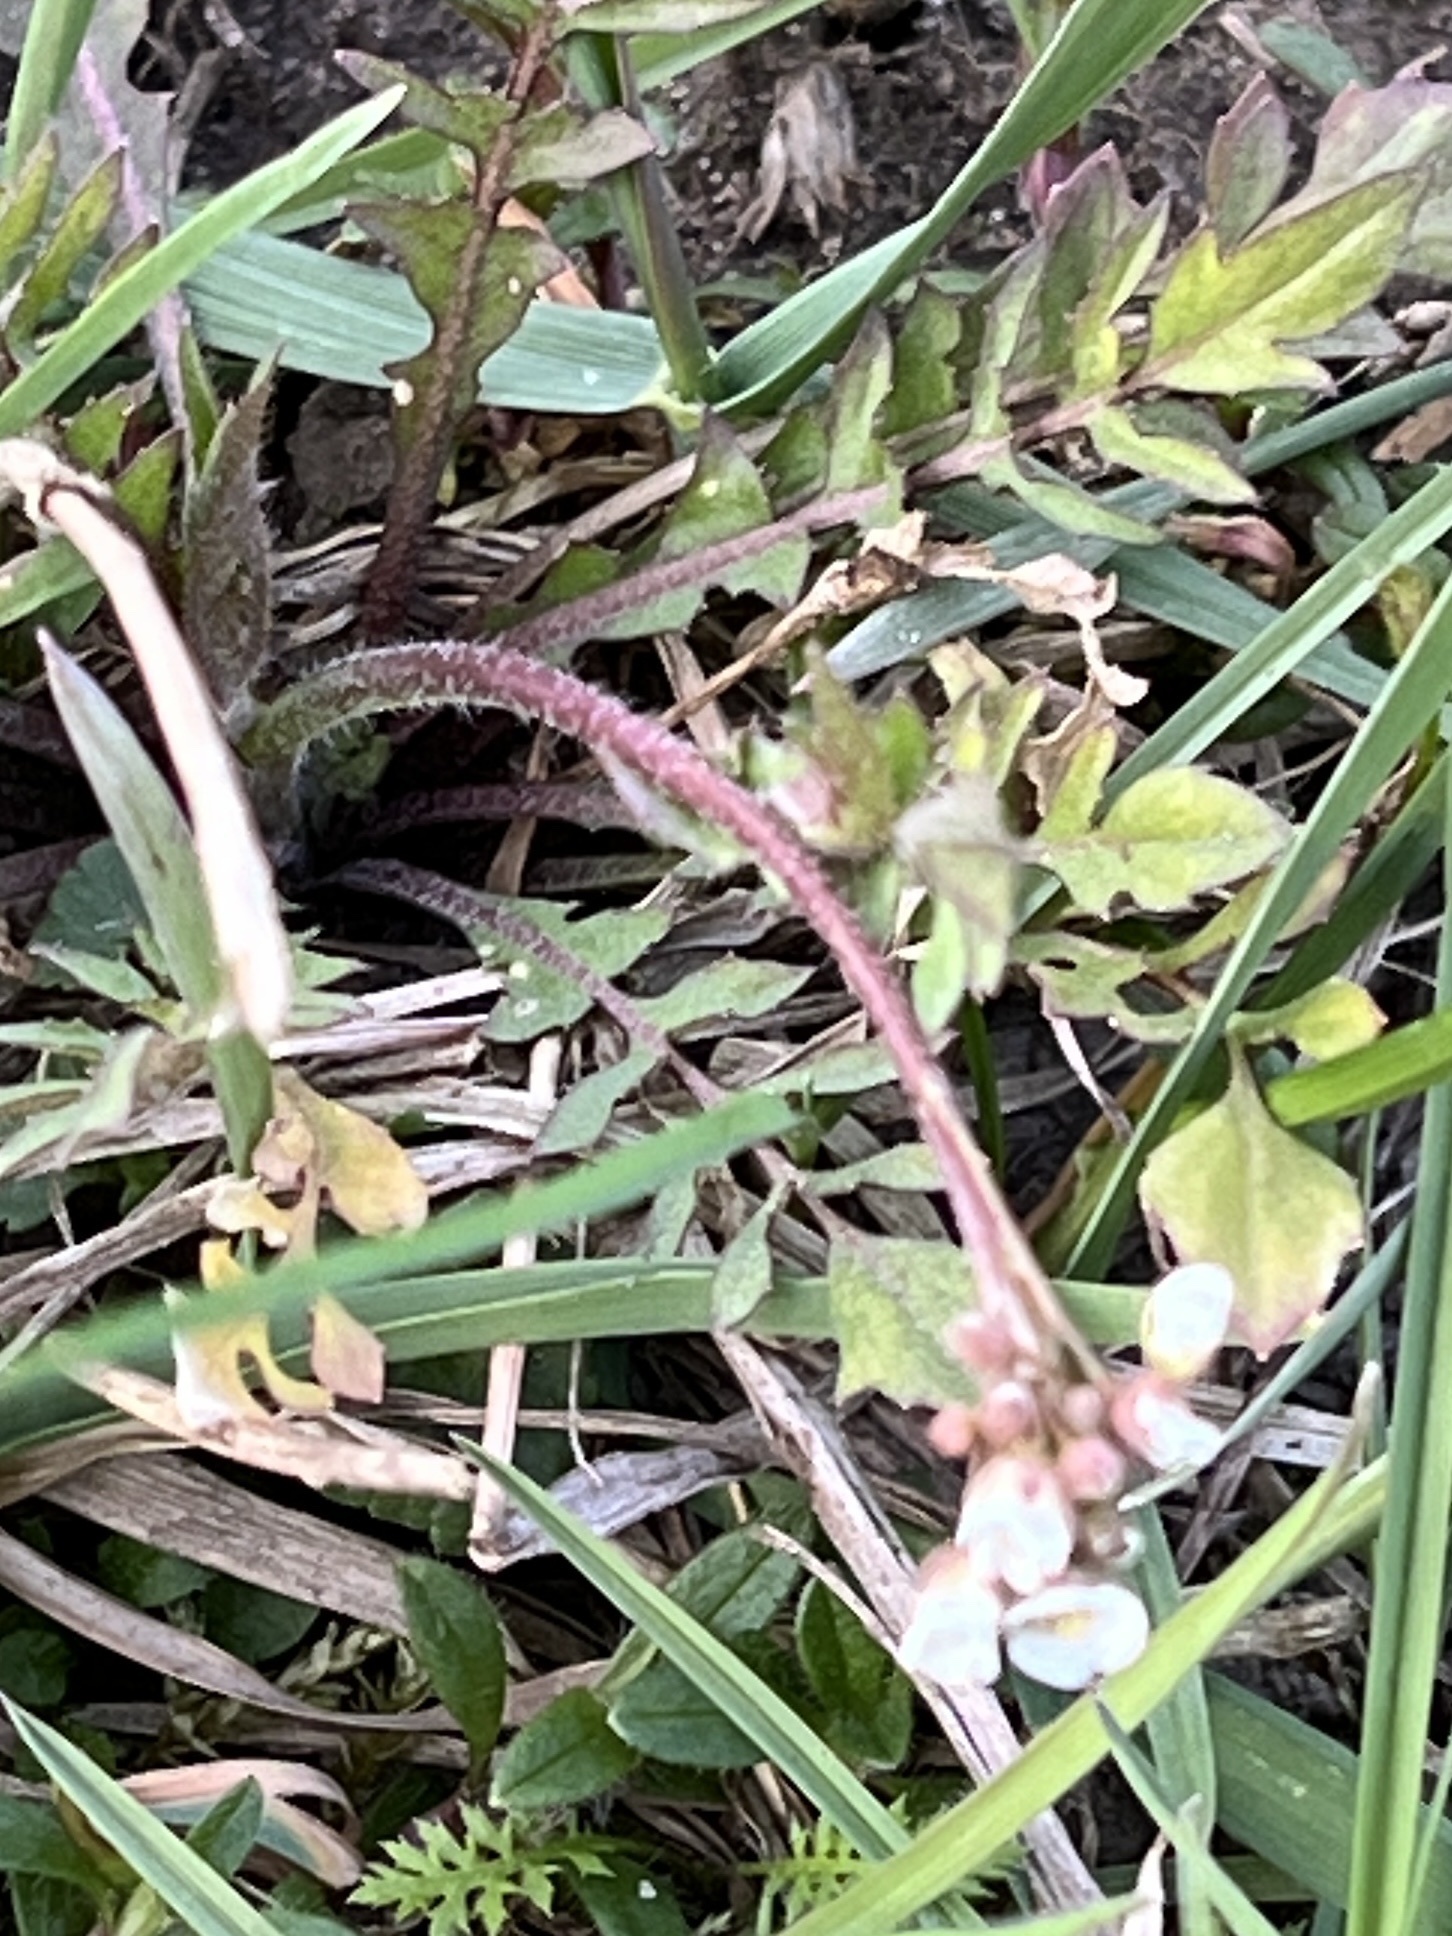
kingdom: Plantae
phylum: Tracheophyta
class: Magnoliopsida
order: Brassicales
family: Brassicaceae
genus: Capsella
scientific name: Capsella bursa-pastoris
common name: Shepherd's purse
